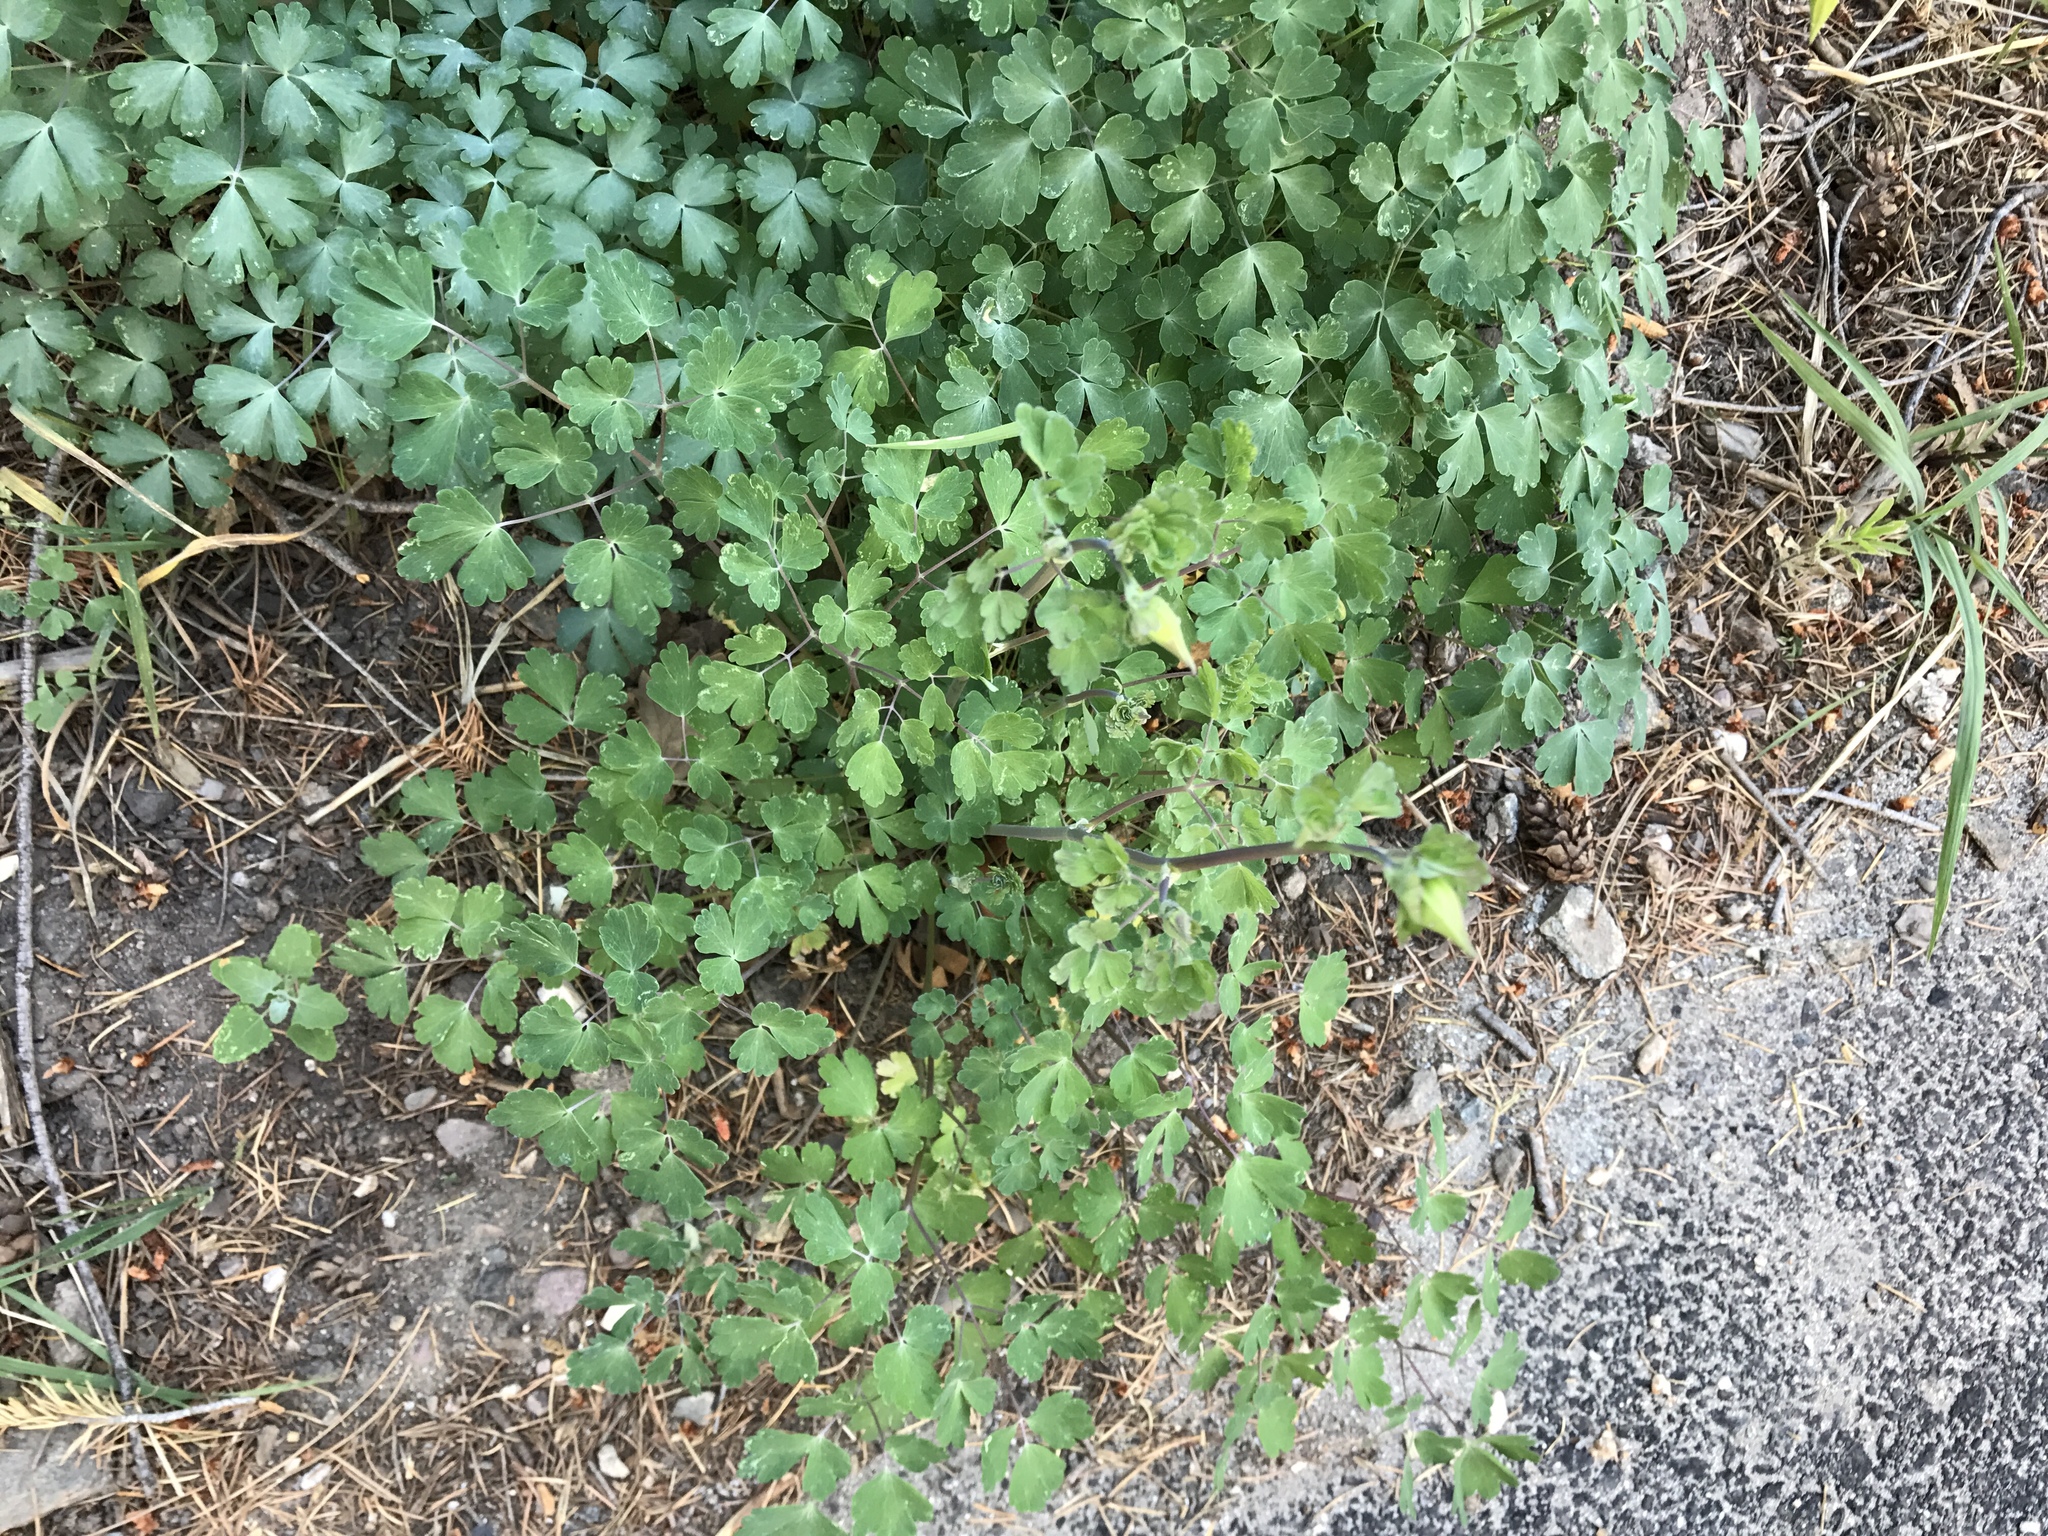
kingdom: Plantae
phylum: Tracheophyta
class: Magnoliopsida
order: Ranunculales
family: Ranunculaceae
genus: Aquilegia
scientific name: Aquilegia chrysantha
